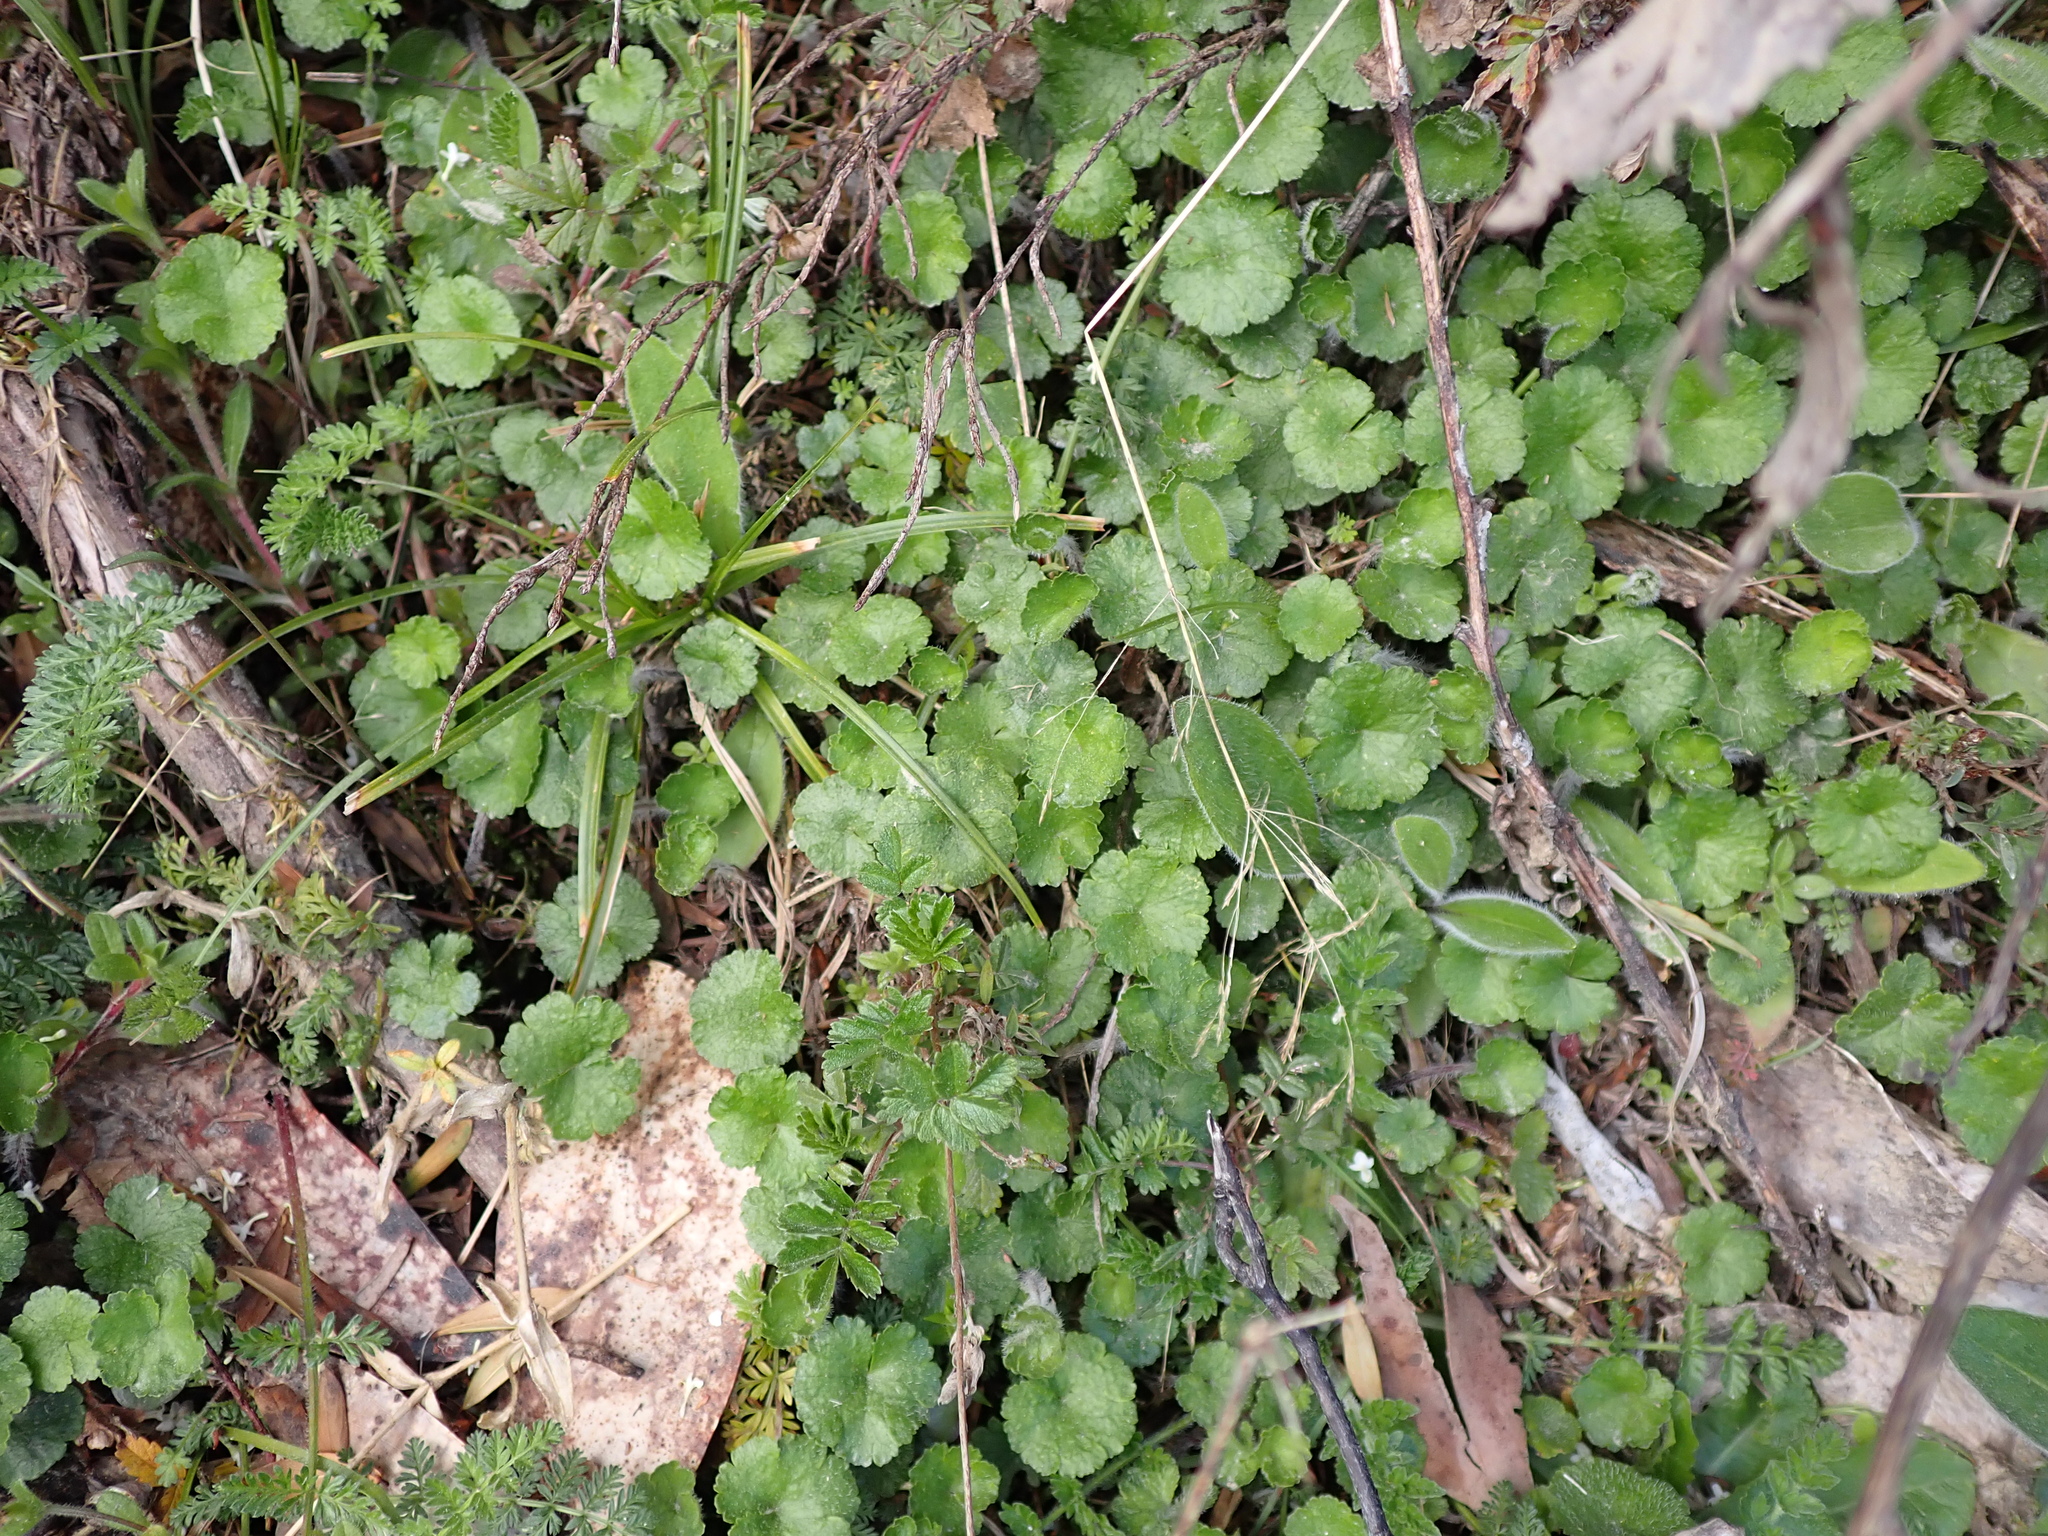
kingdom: Plantae
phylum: Tracheophyta
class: Magnoliopsida
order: Apiales
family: Araliaceae
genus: Hydrocotyle
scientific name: Hydrocotyle algida
